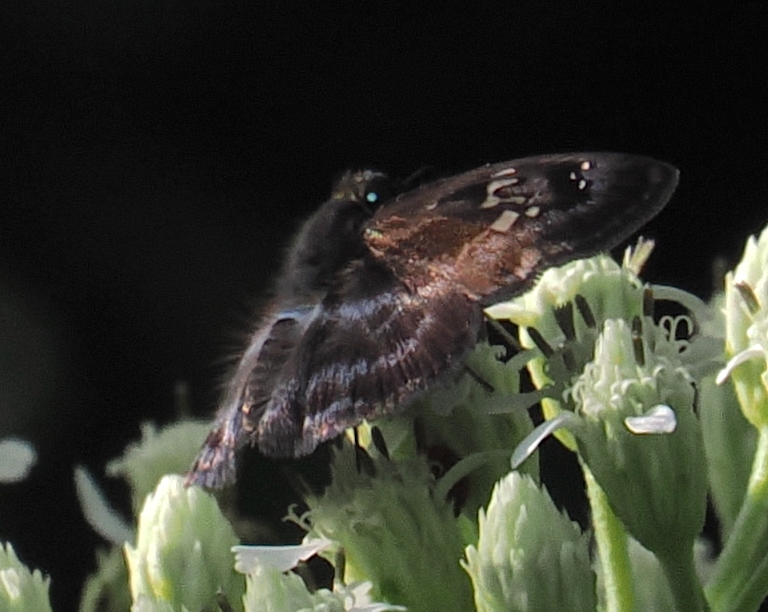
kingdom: Animalia
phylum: Arthropoda
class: Insecta
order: Lepidoptera
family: Hesperiidae
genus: Quadrus
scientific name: Quadrus cerialis
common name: Common blue-skipper
